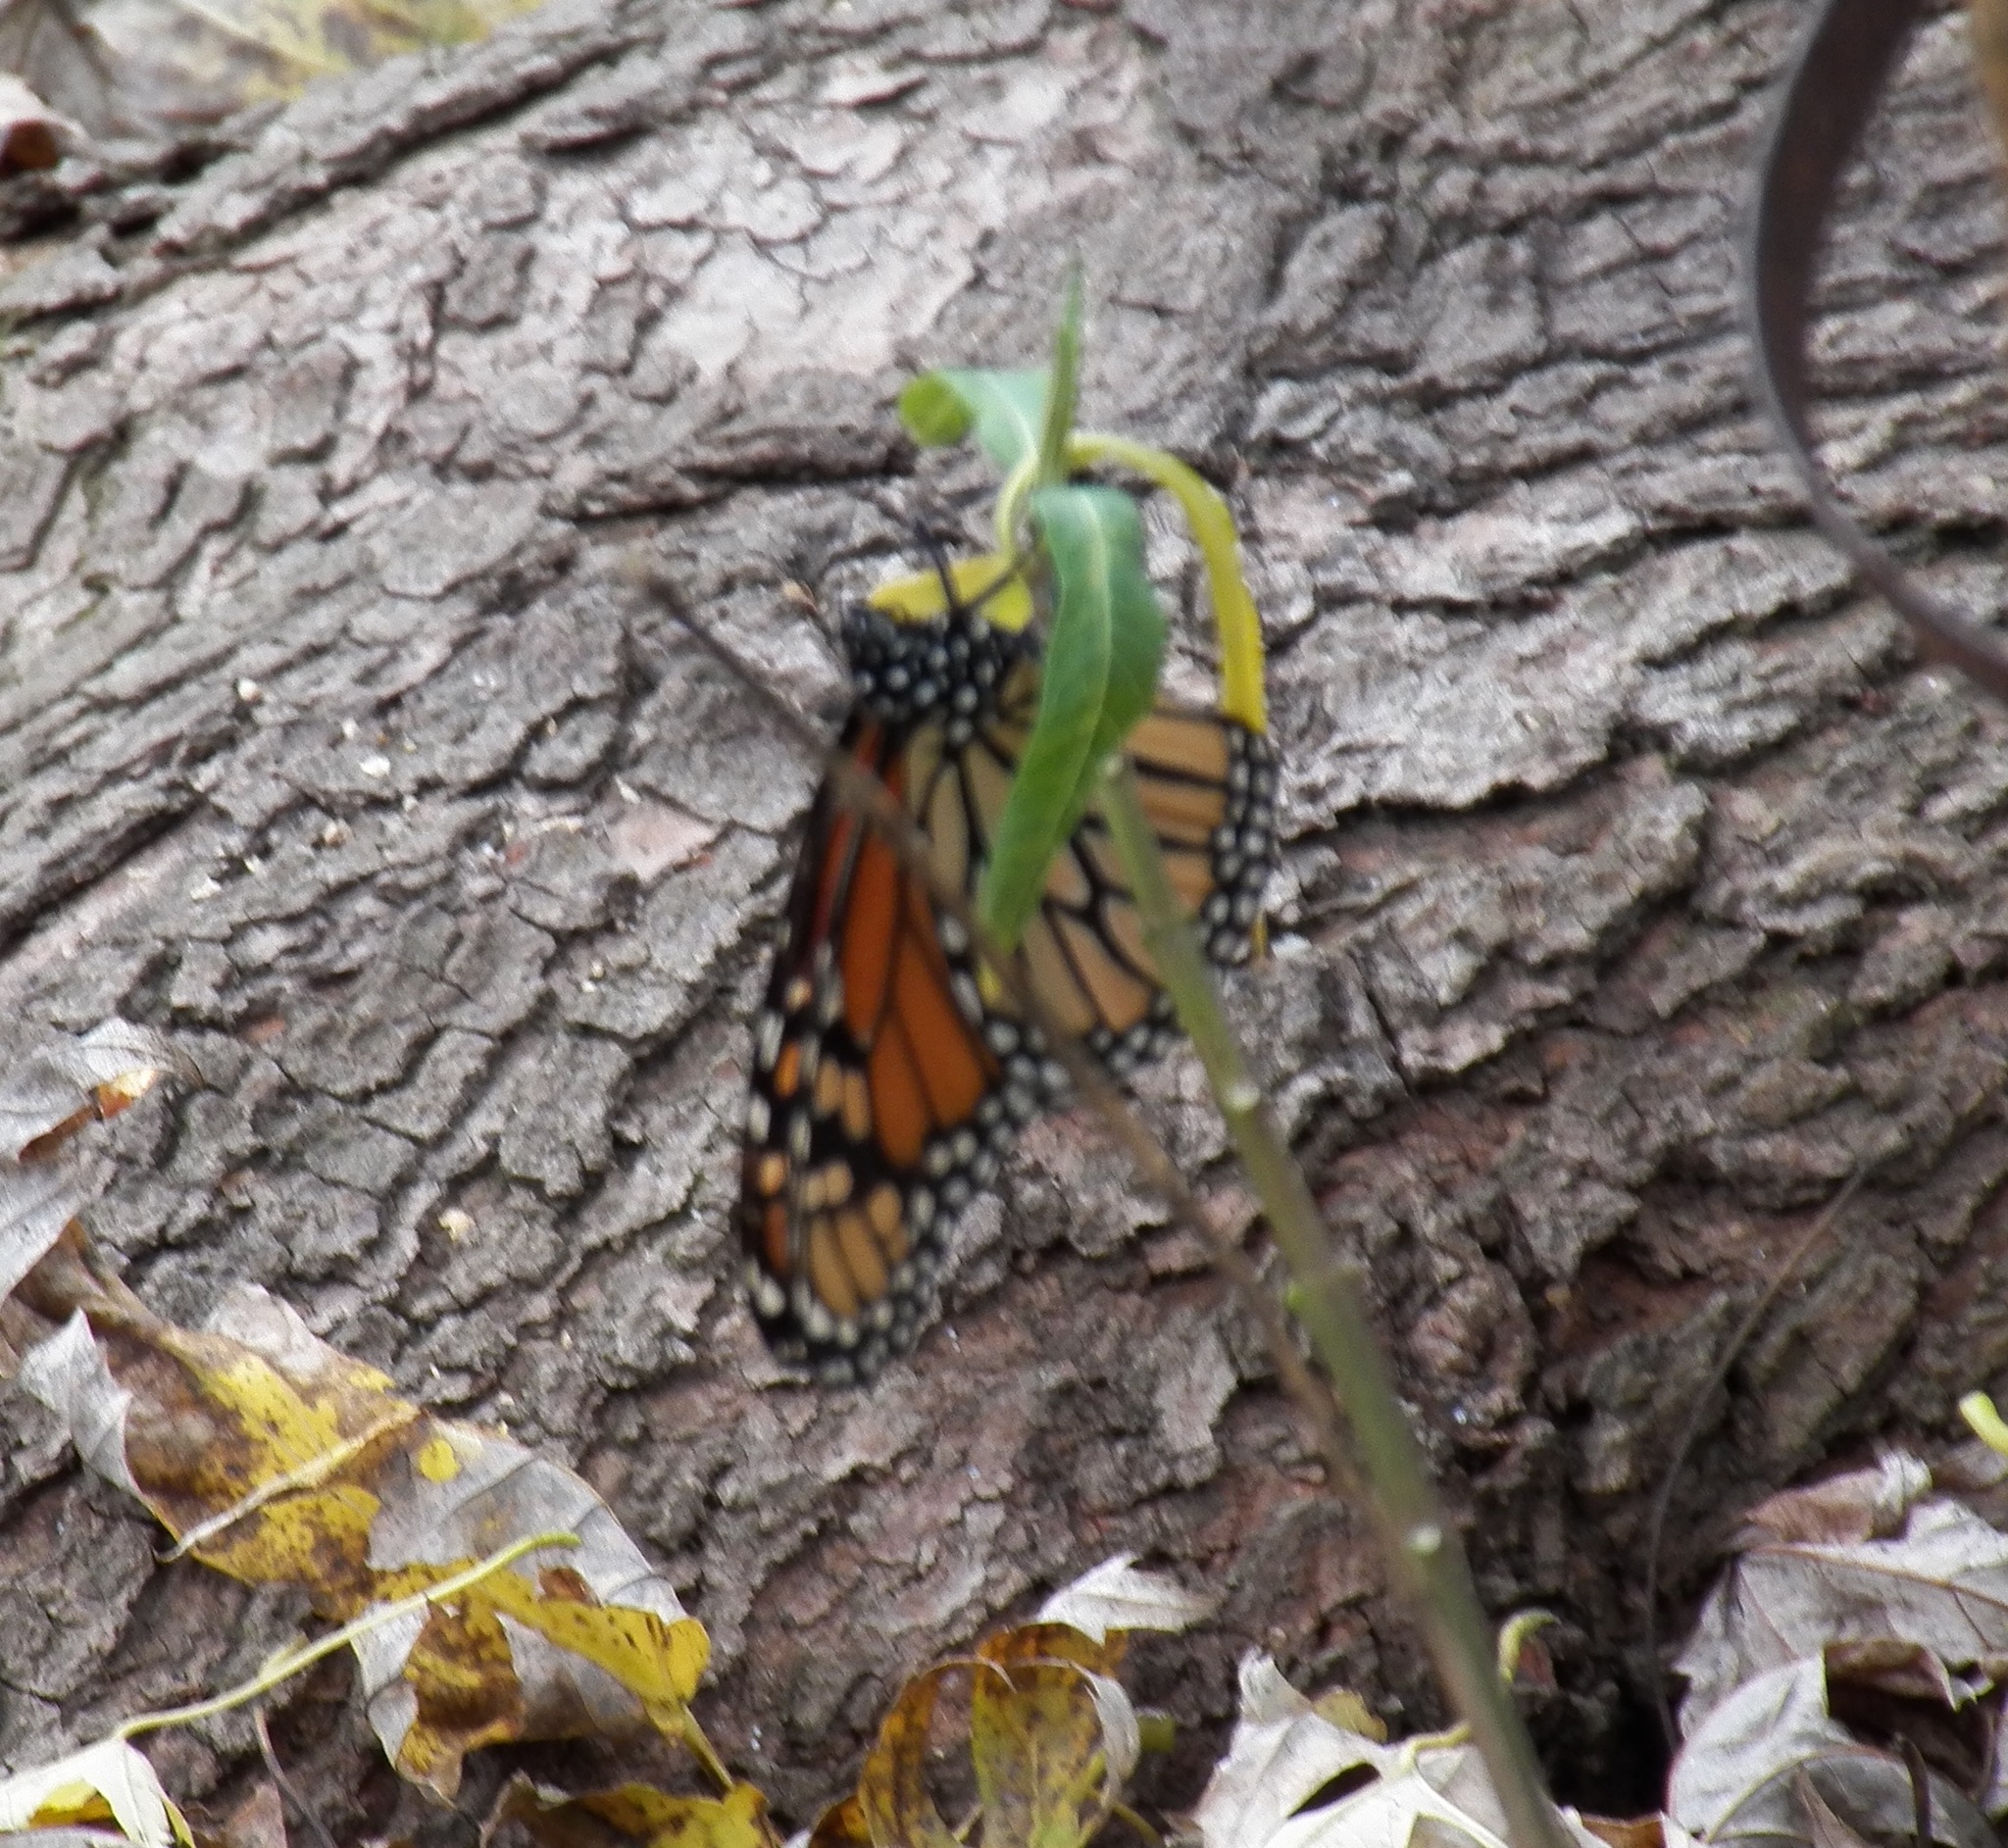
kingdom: Animalia
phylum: Arthropoda
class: Insecta
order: Lepidoptera
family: Nymphalidae
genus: Danaus
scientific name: Danaus plexippus
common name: Monarch
